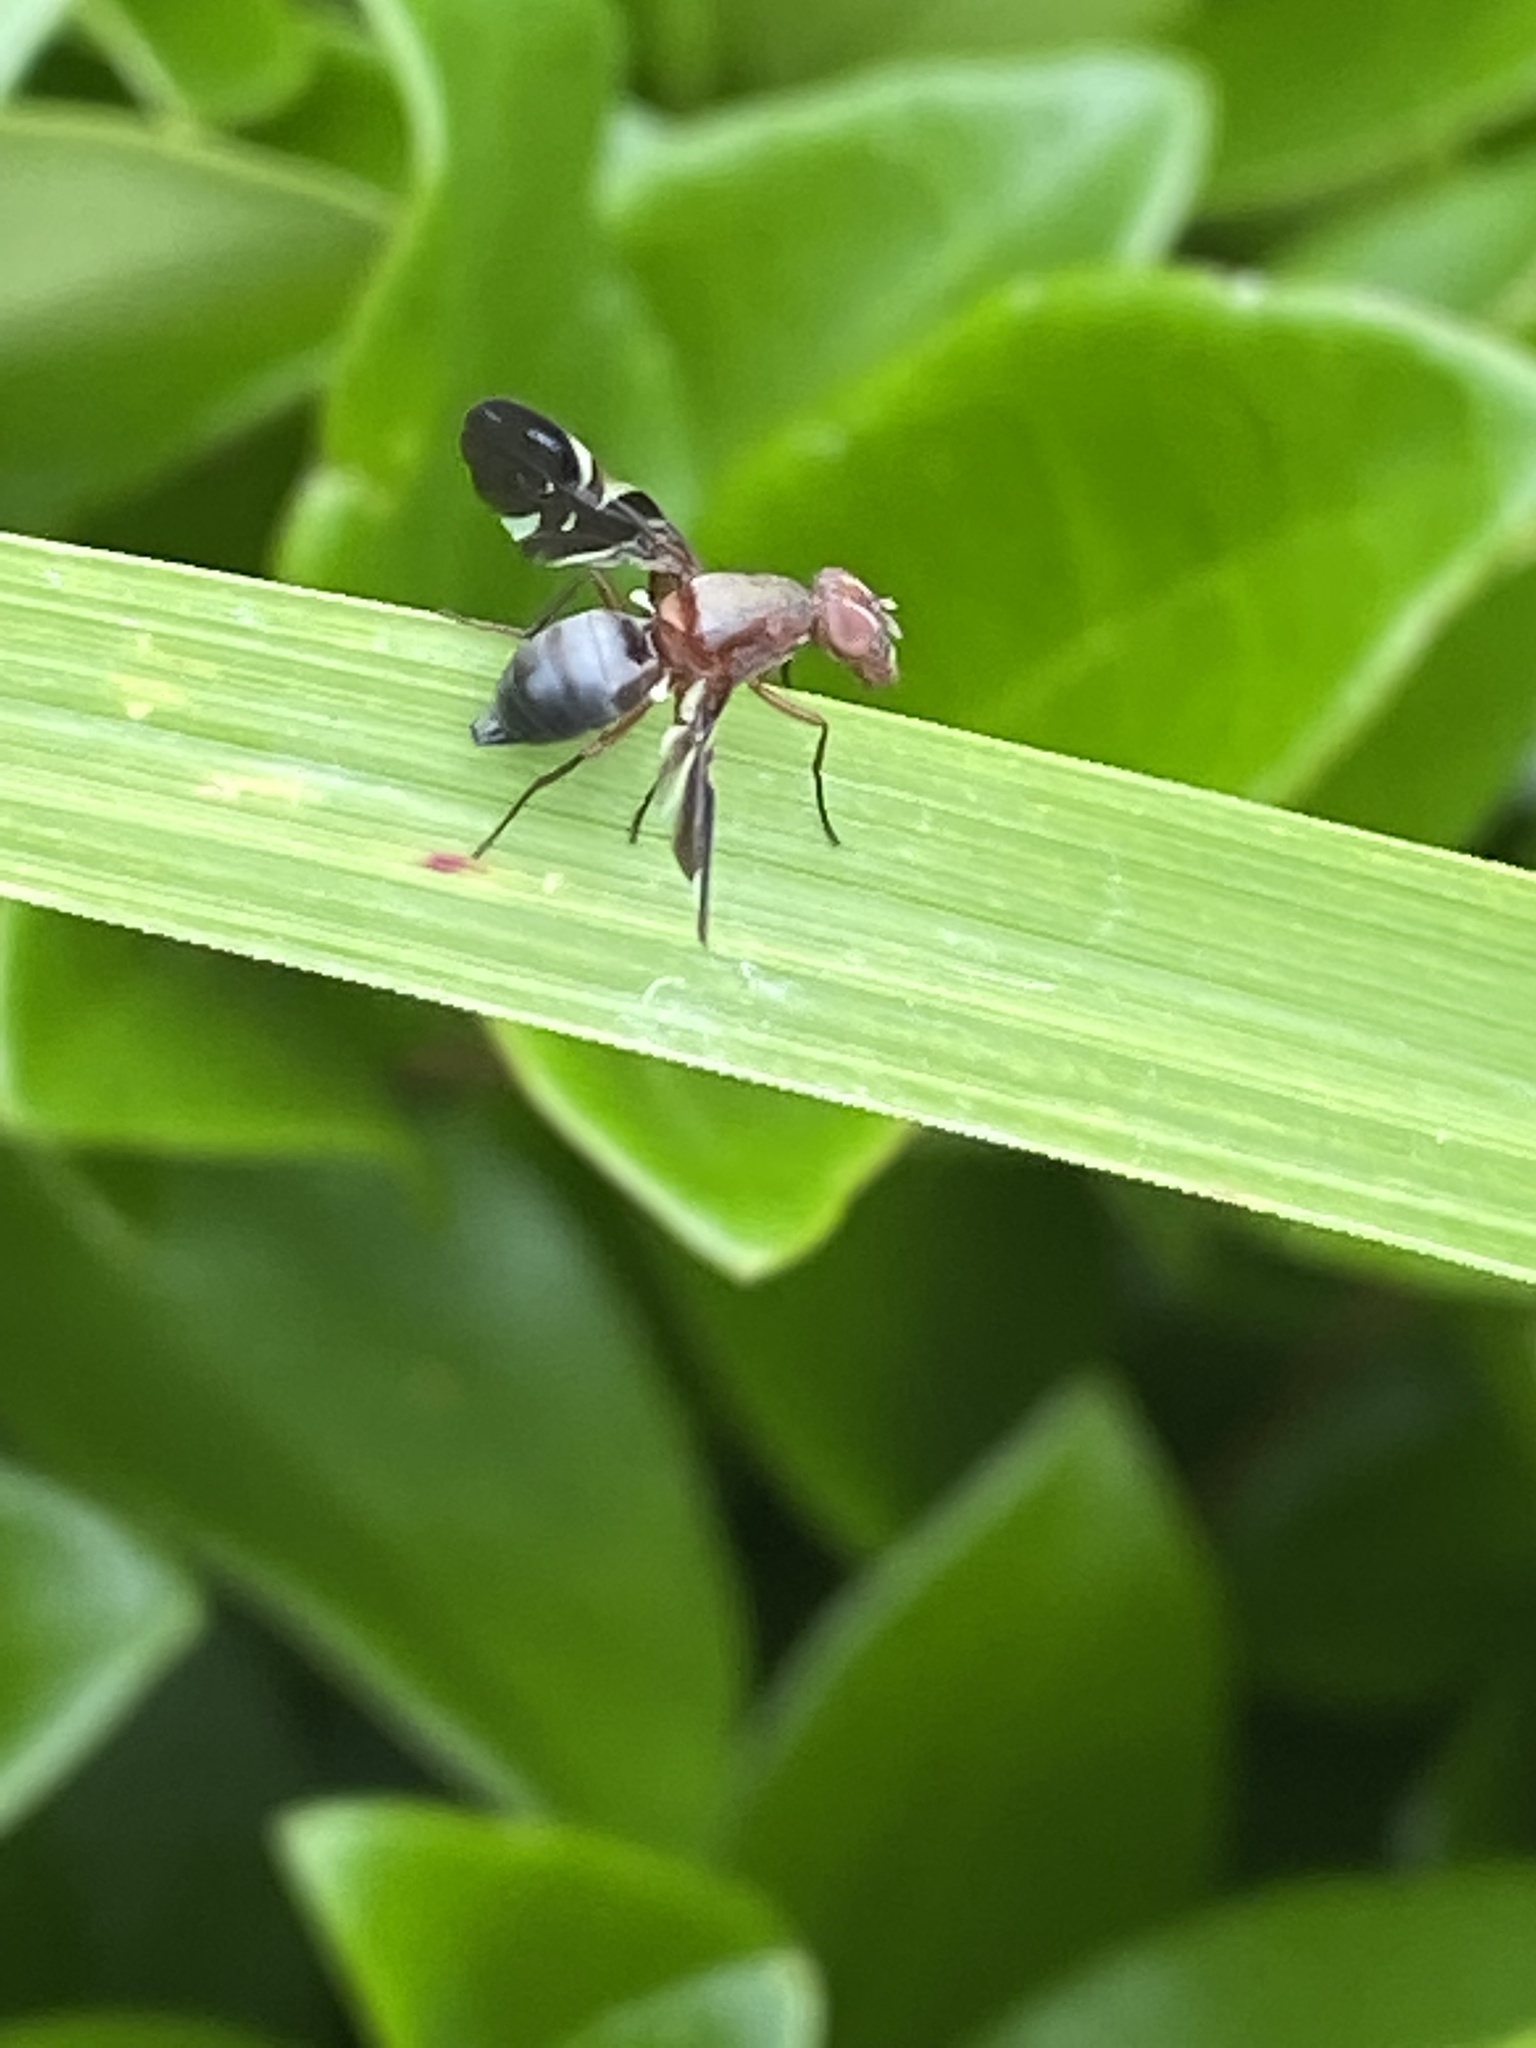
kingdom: Animalia
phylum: Arthropoda
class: Insecta
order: Diptera
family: Ulidiidae
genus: Delphinia
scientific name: Delphinia picta
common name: Common picture-winged fly
